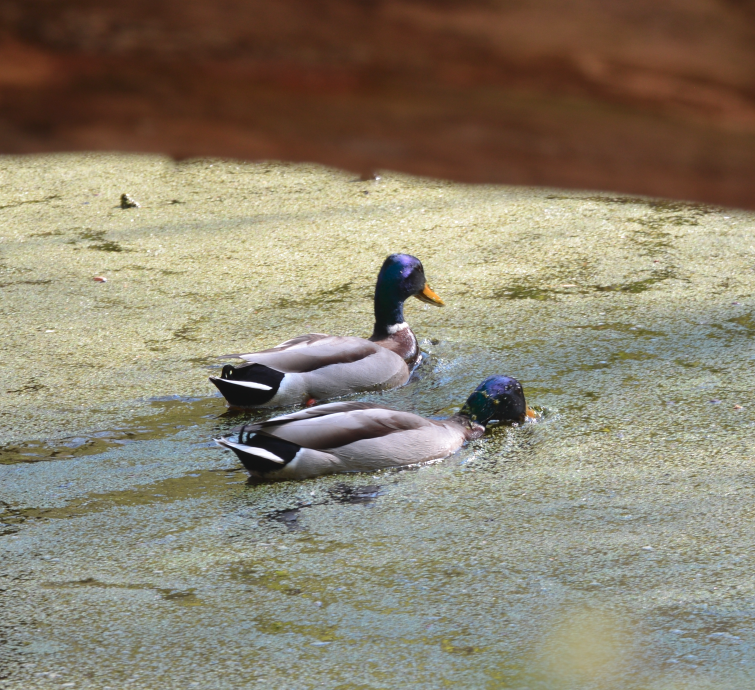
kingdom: Animalia
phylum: Chordata
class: Aves
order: Anseriformes
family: Anatidae
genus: Anas
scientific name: Anas platyrhynchos
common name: Mallard
